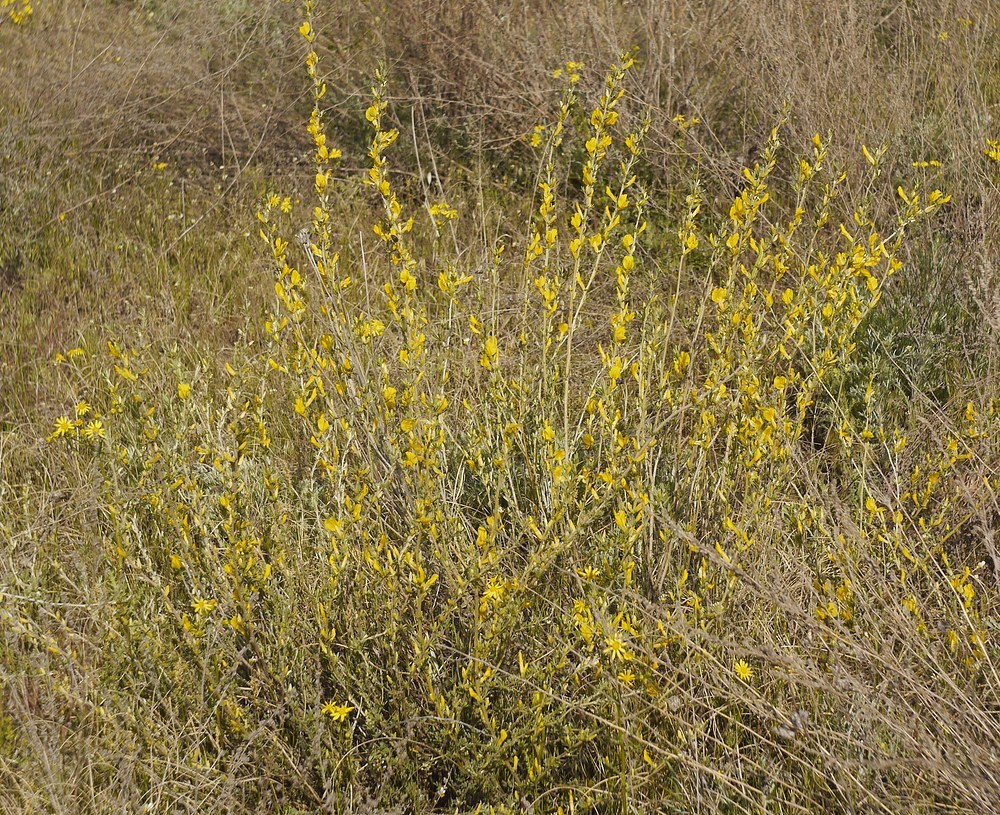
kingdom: Plantae
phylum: Tracheophyta
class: Magnoliopsida
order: Fabales
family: Fabaceae
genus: Chamaecytisus
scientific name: Chamaecytisus borysthenicus
